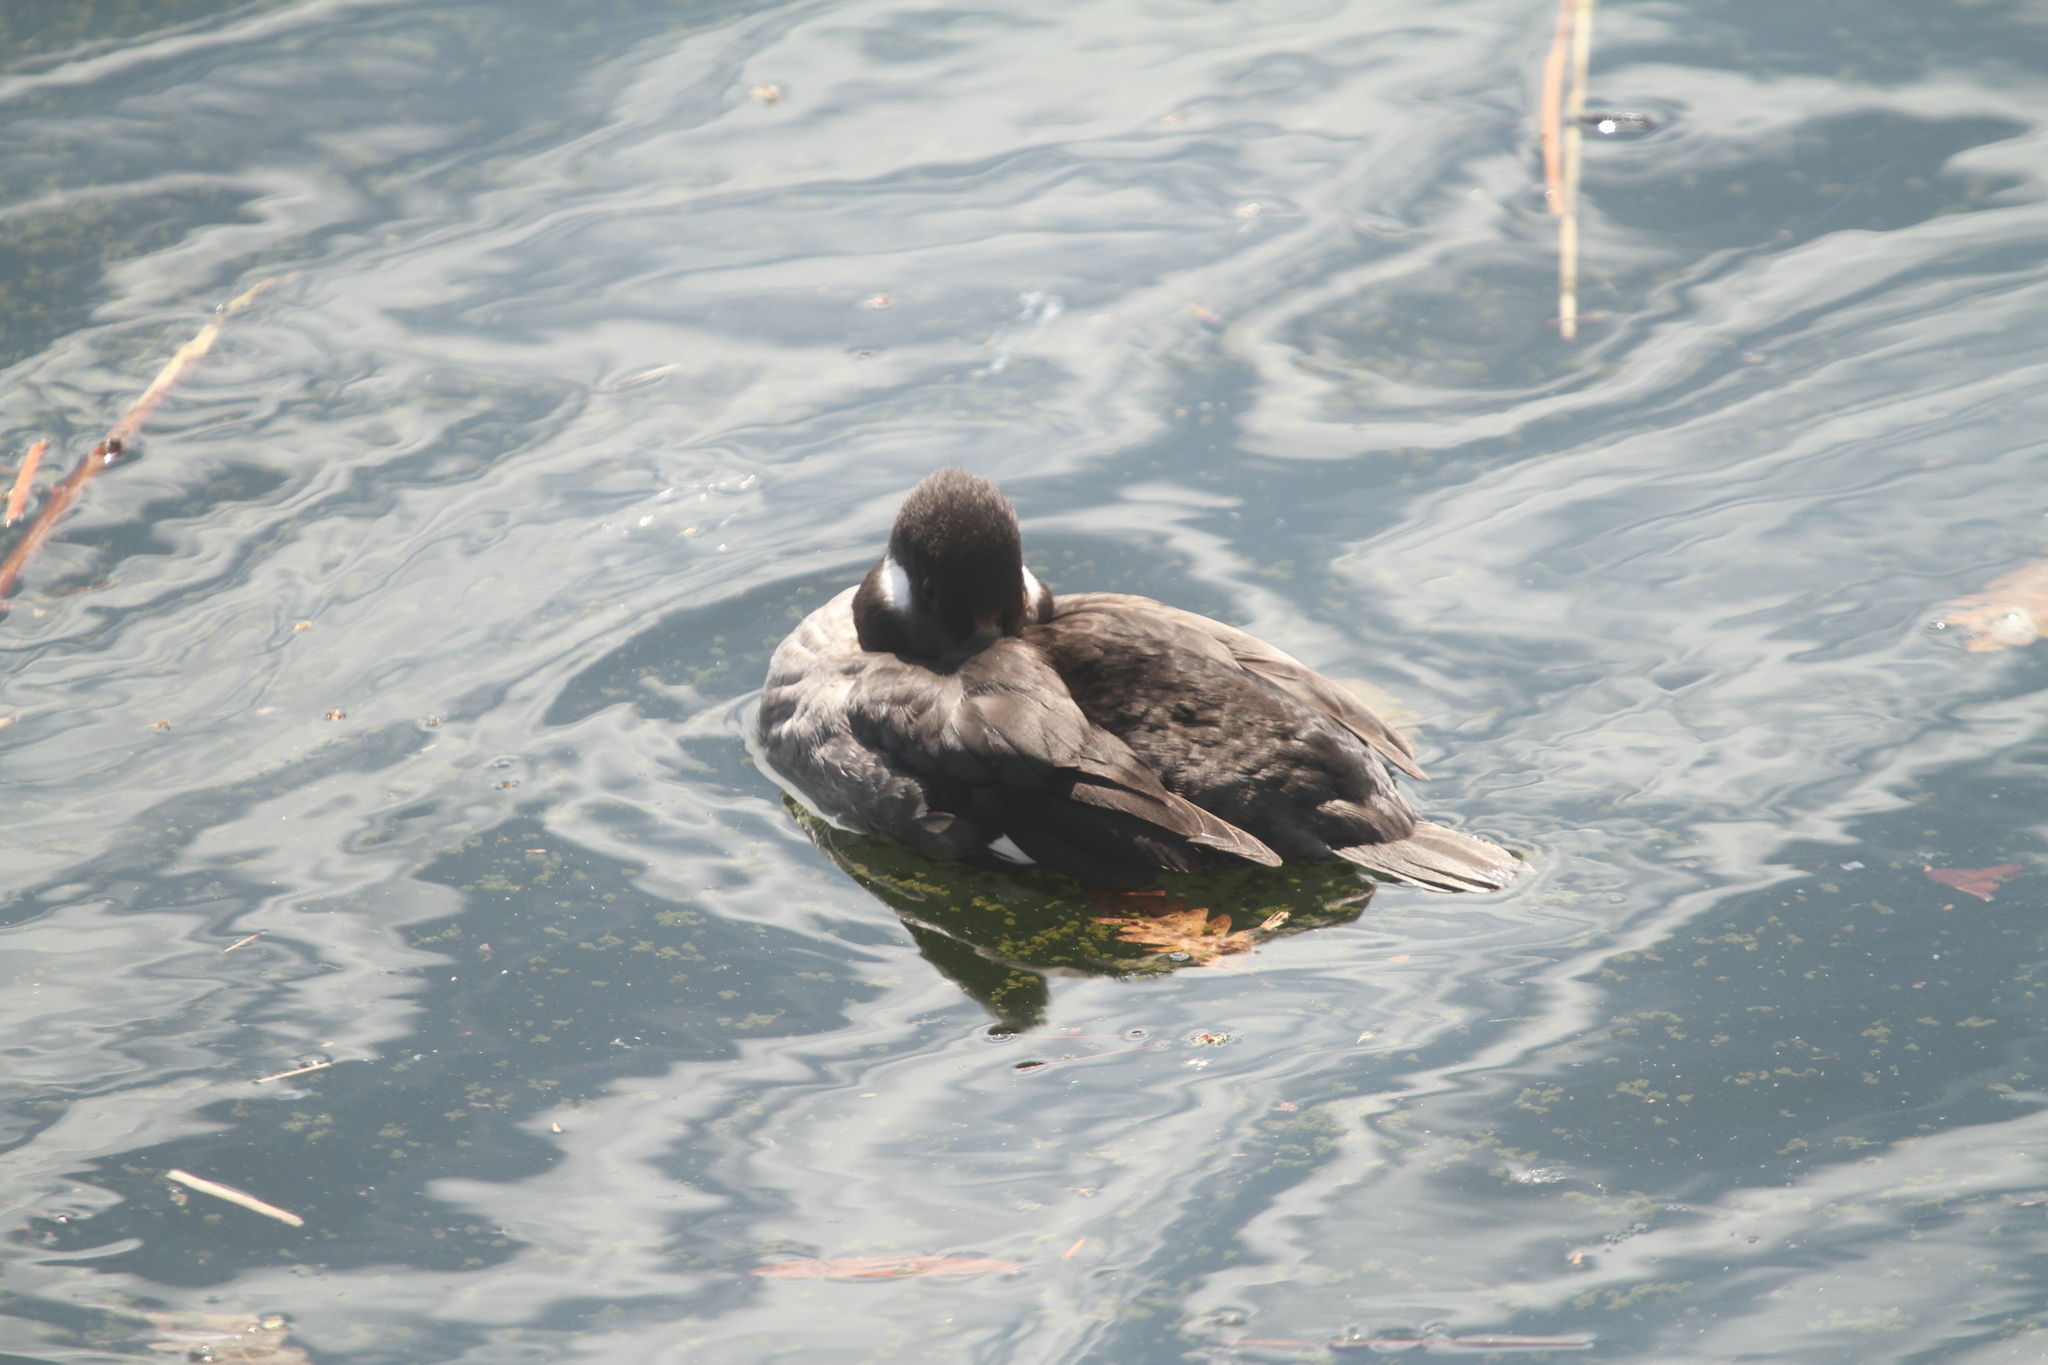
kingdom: Animalia
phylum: Chordata
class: Aves
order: Anseriformes
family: Anatidae
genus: Bucephala
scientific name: Bucephala albeola
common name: Bufflehead
